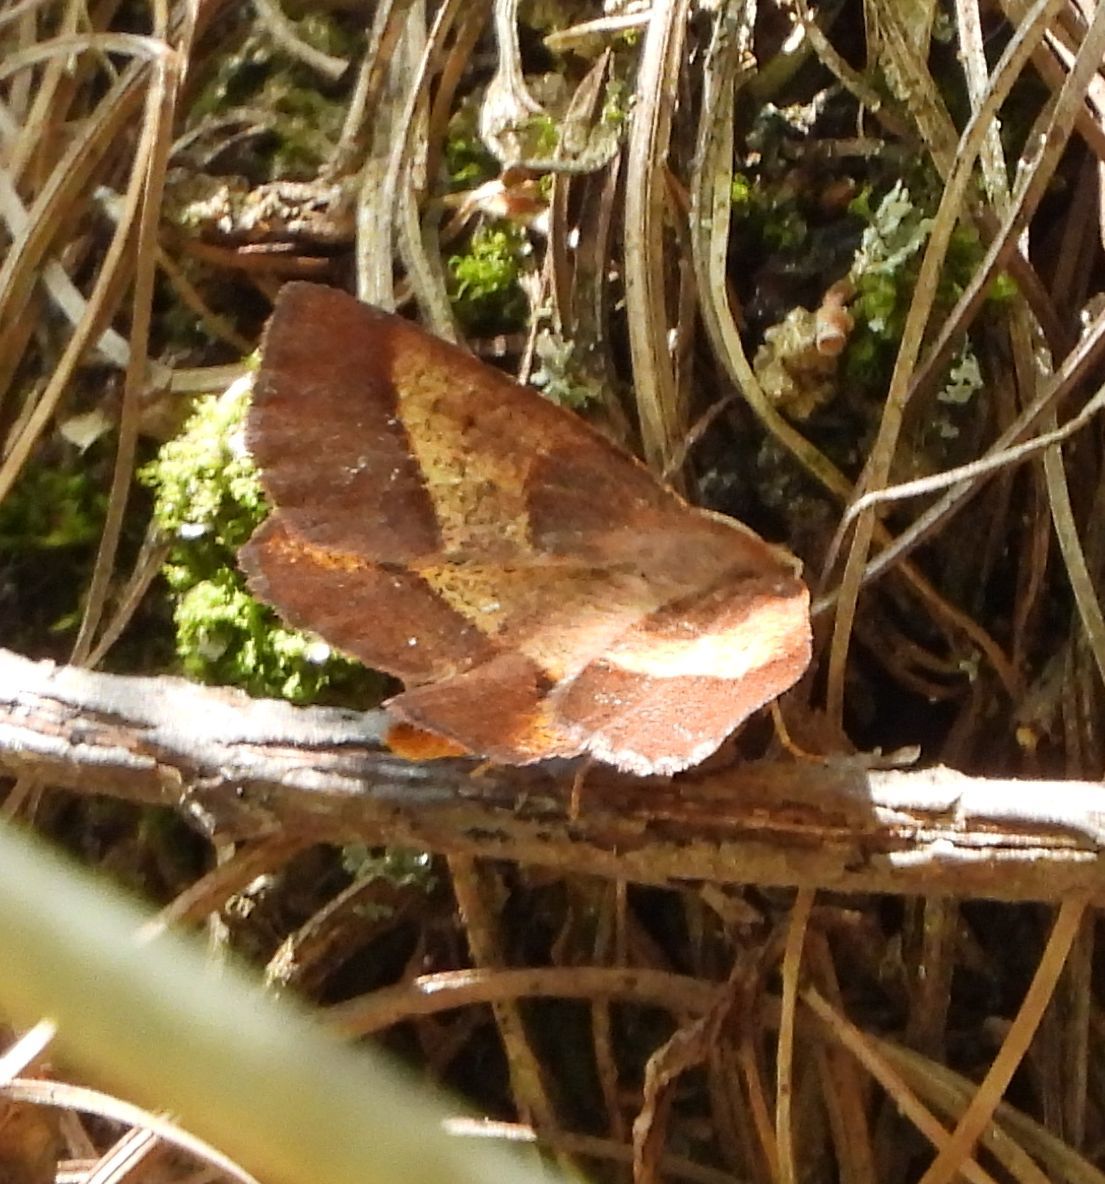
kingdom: Animalia
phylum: Arthropoda
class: Insecta
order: Lepidoptera
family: Geometridae
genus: Metarranthis
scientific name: Metarranthis obfirmaria
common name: Yellow-washed metarranthis
